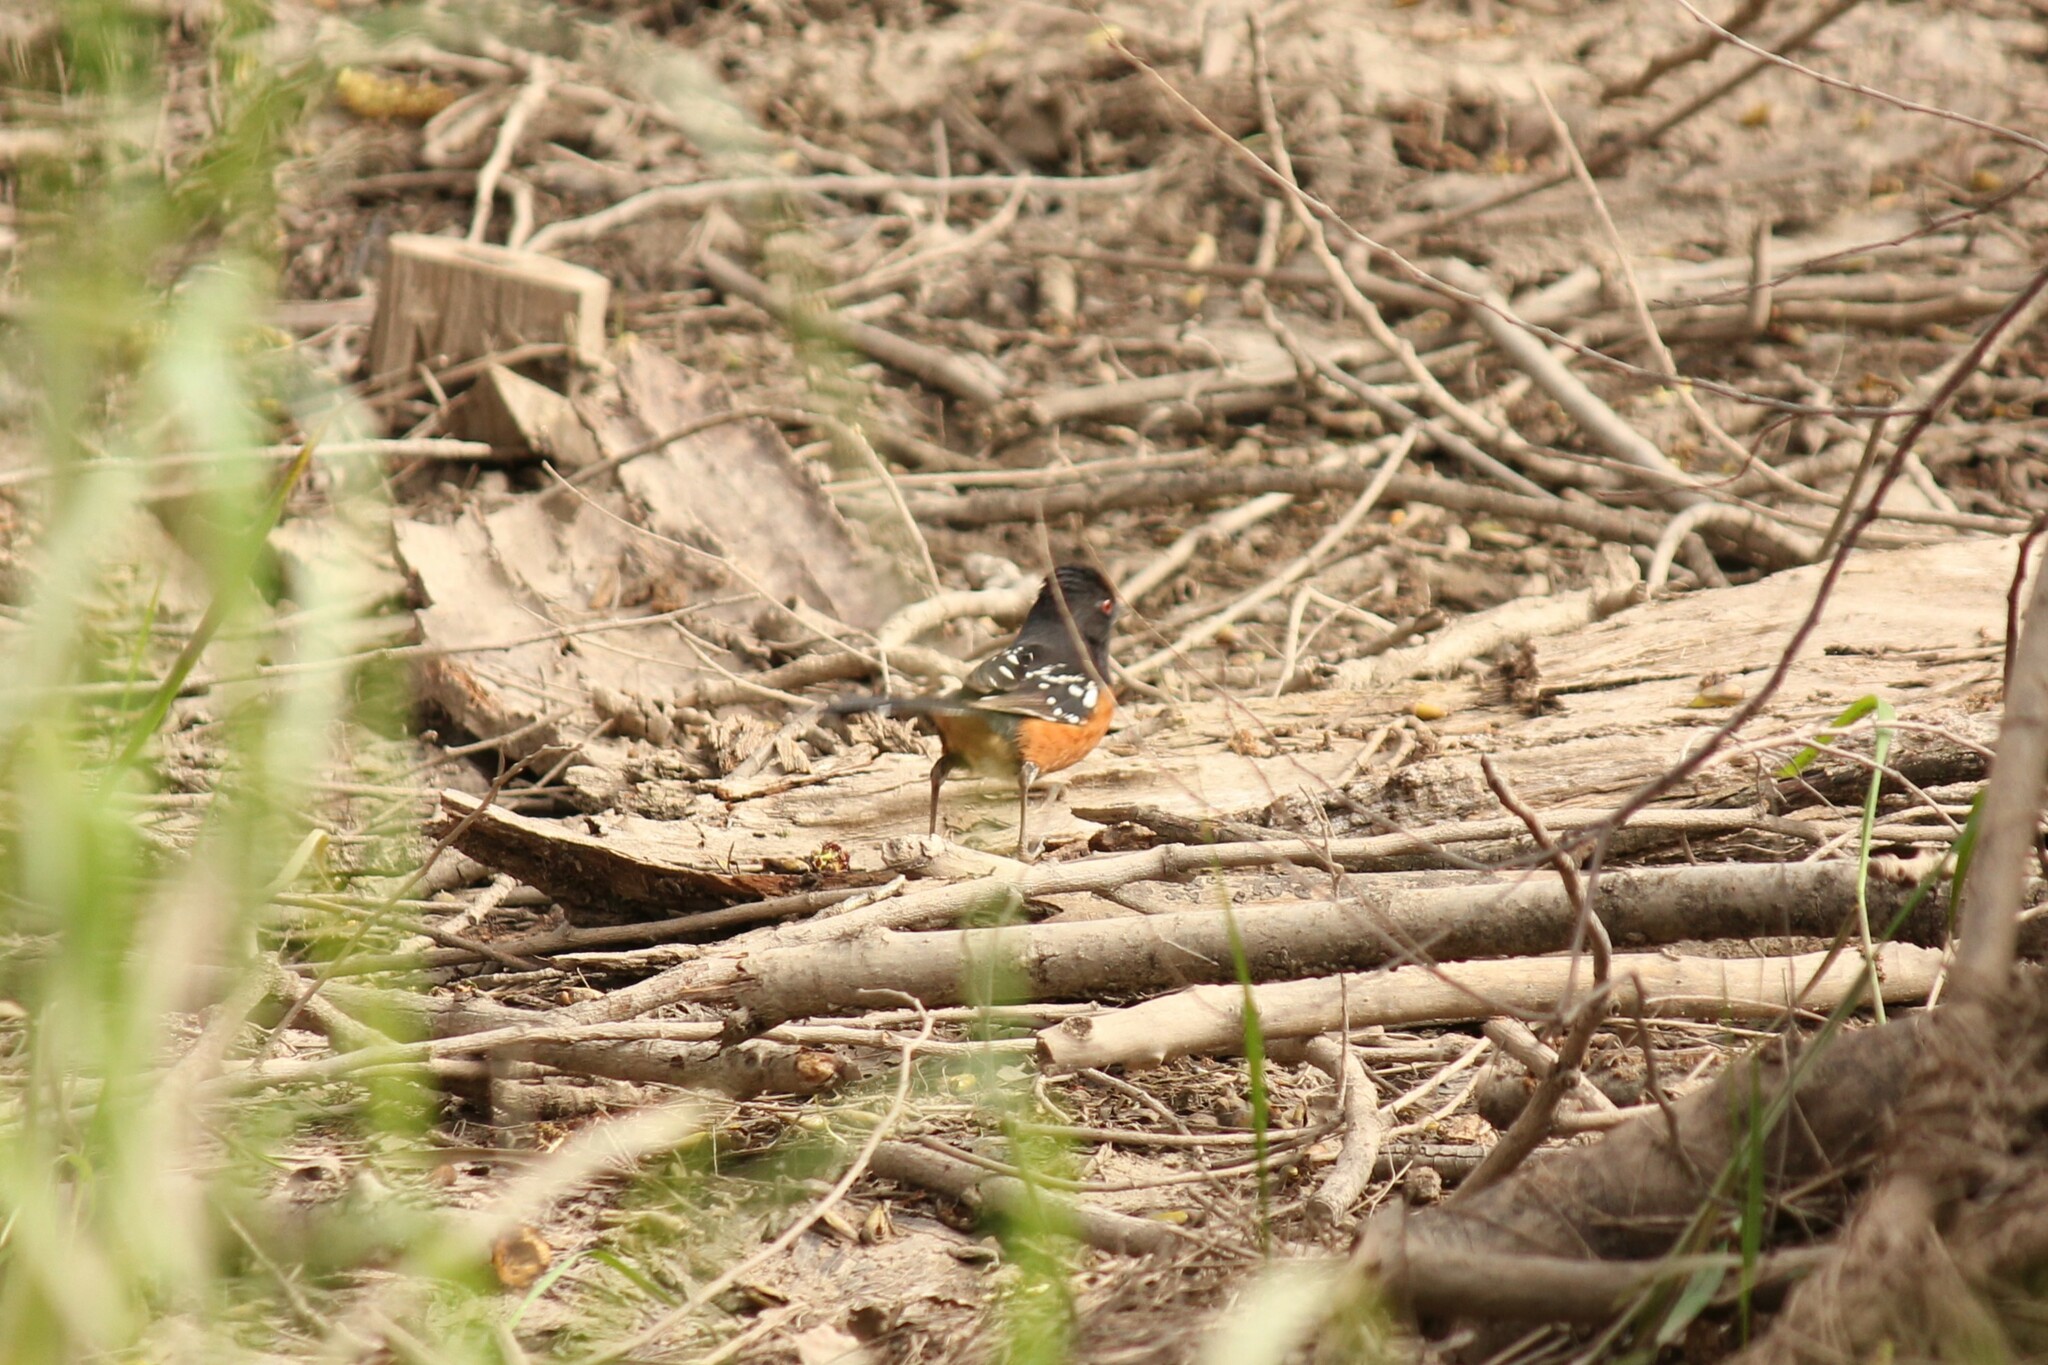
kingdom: Animalia
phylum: Chordata
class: Aves
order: Passeriformes
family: Passerellidae
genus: Pipilo
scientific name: Pipilo maculatus
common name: Spotted towhee
